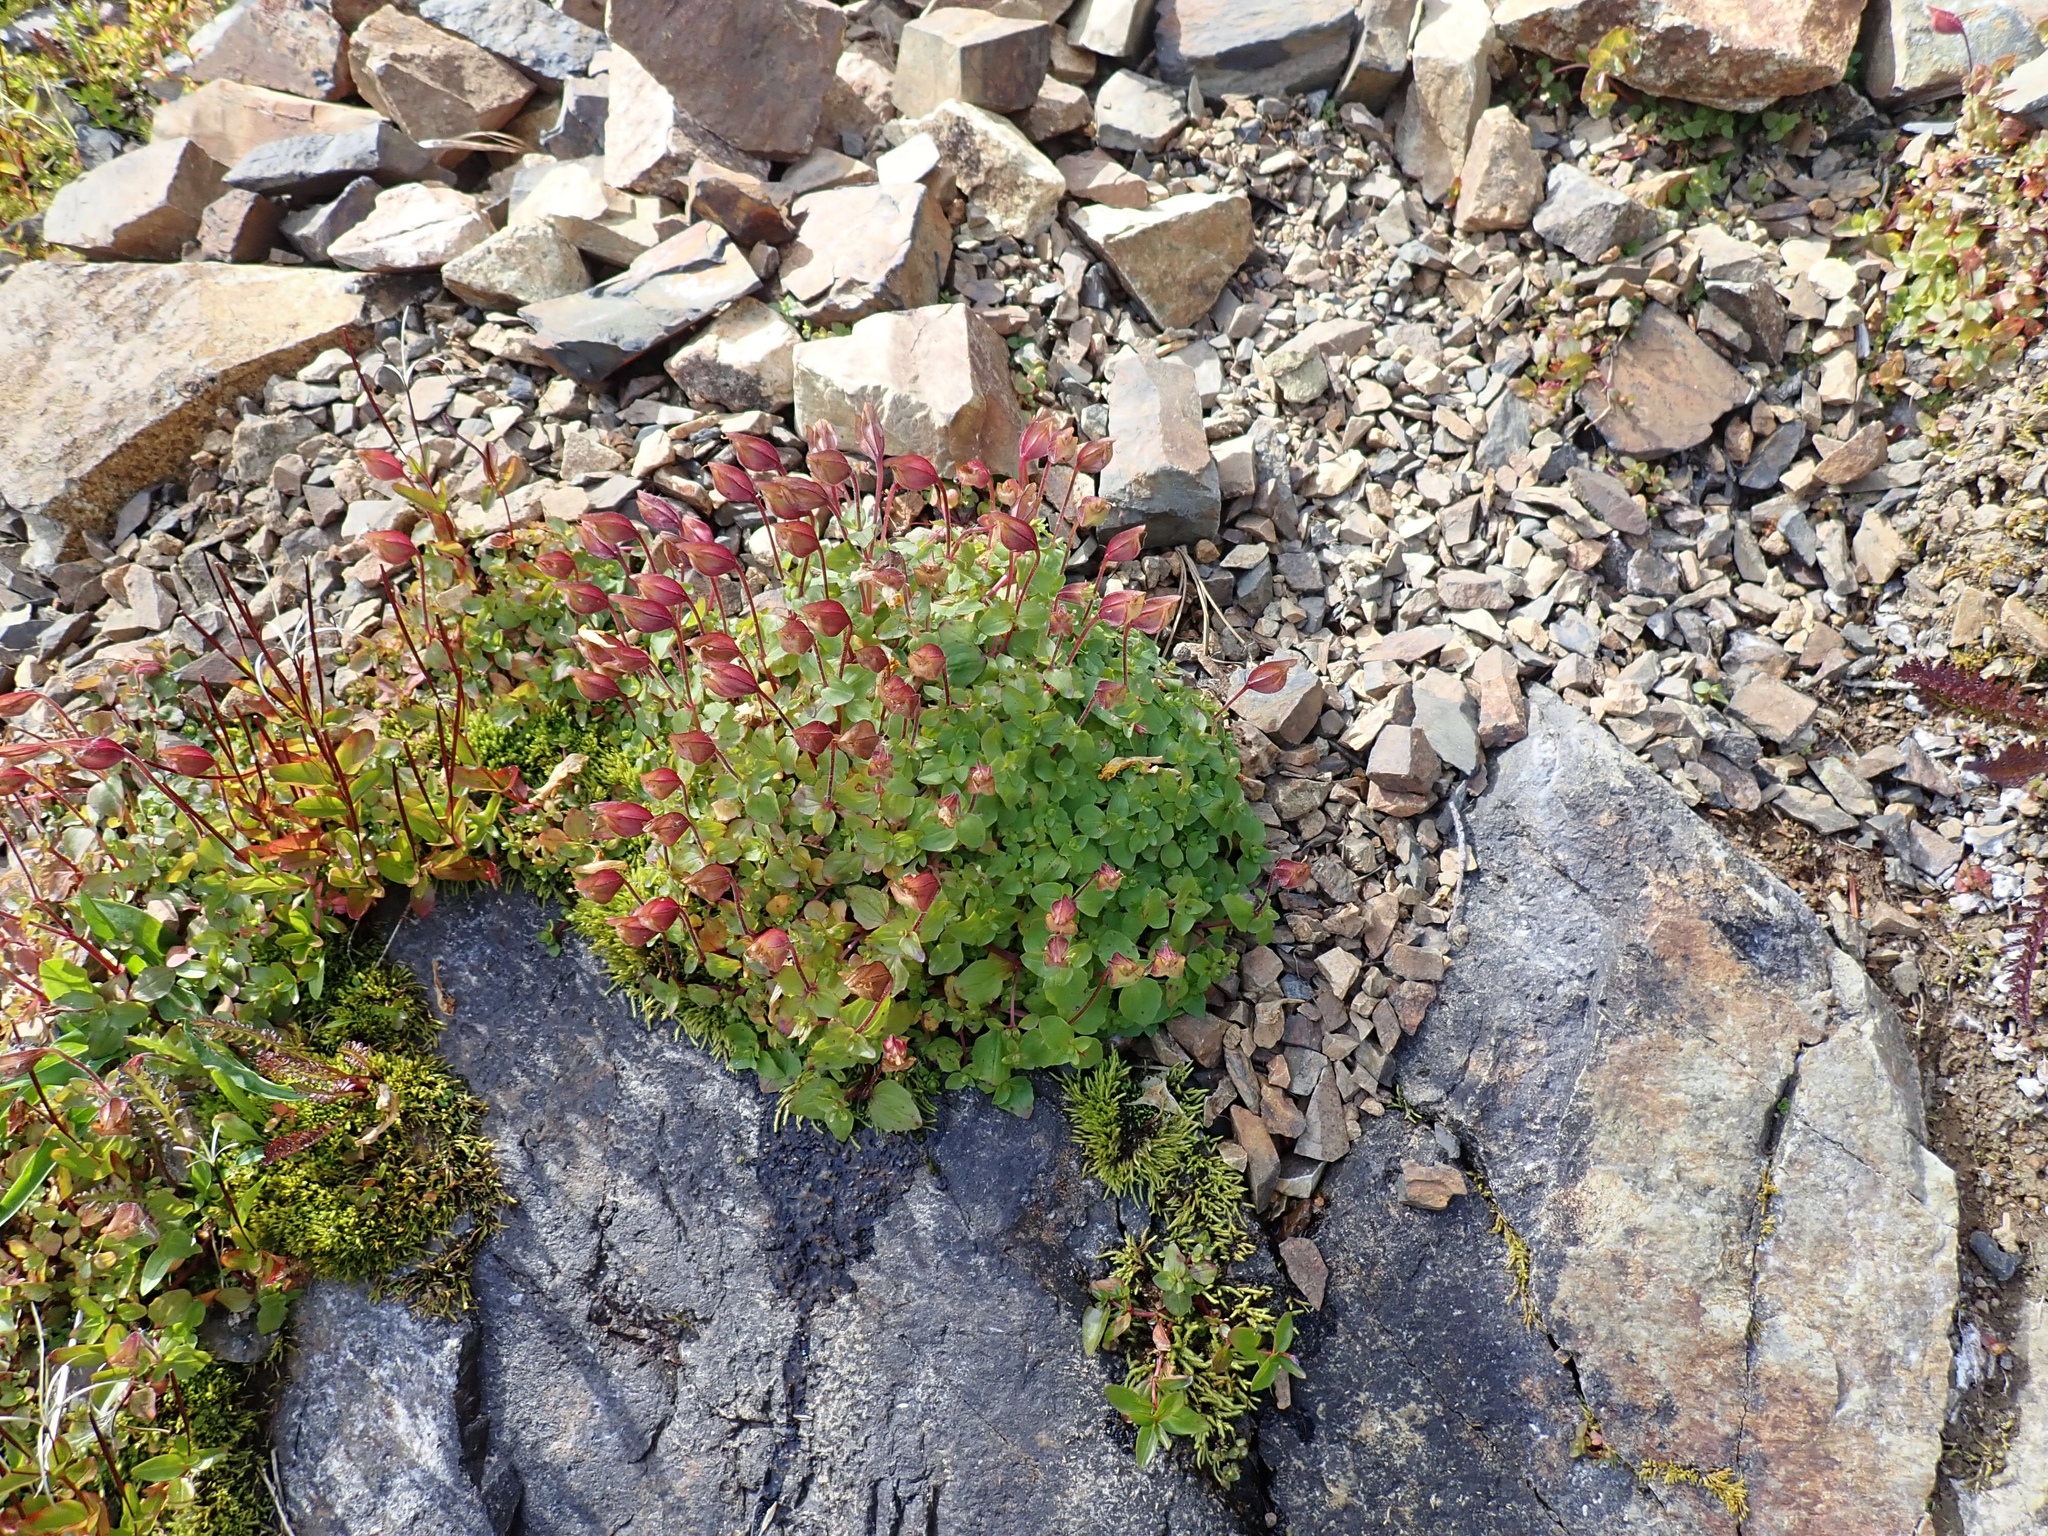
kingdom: Plantae
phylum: Tracheophyta
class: Magnoliopsida
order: Lamiales
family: Phrymaceae
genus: Erythranthe
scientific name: Erythranthe caespitosa
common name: Subalpine monkeyflower
